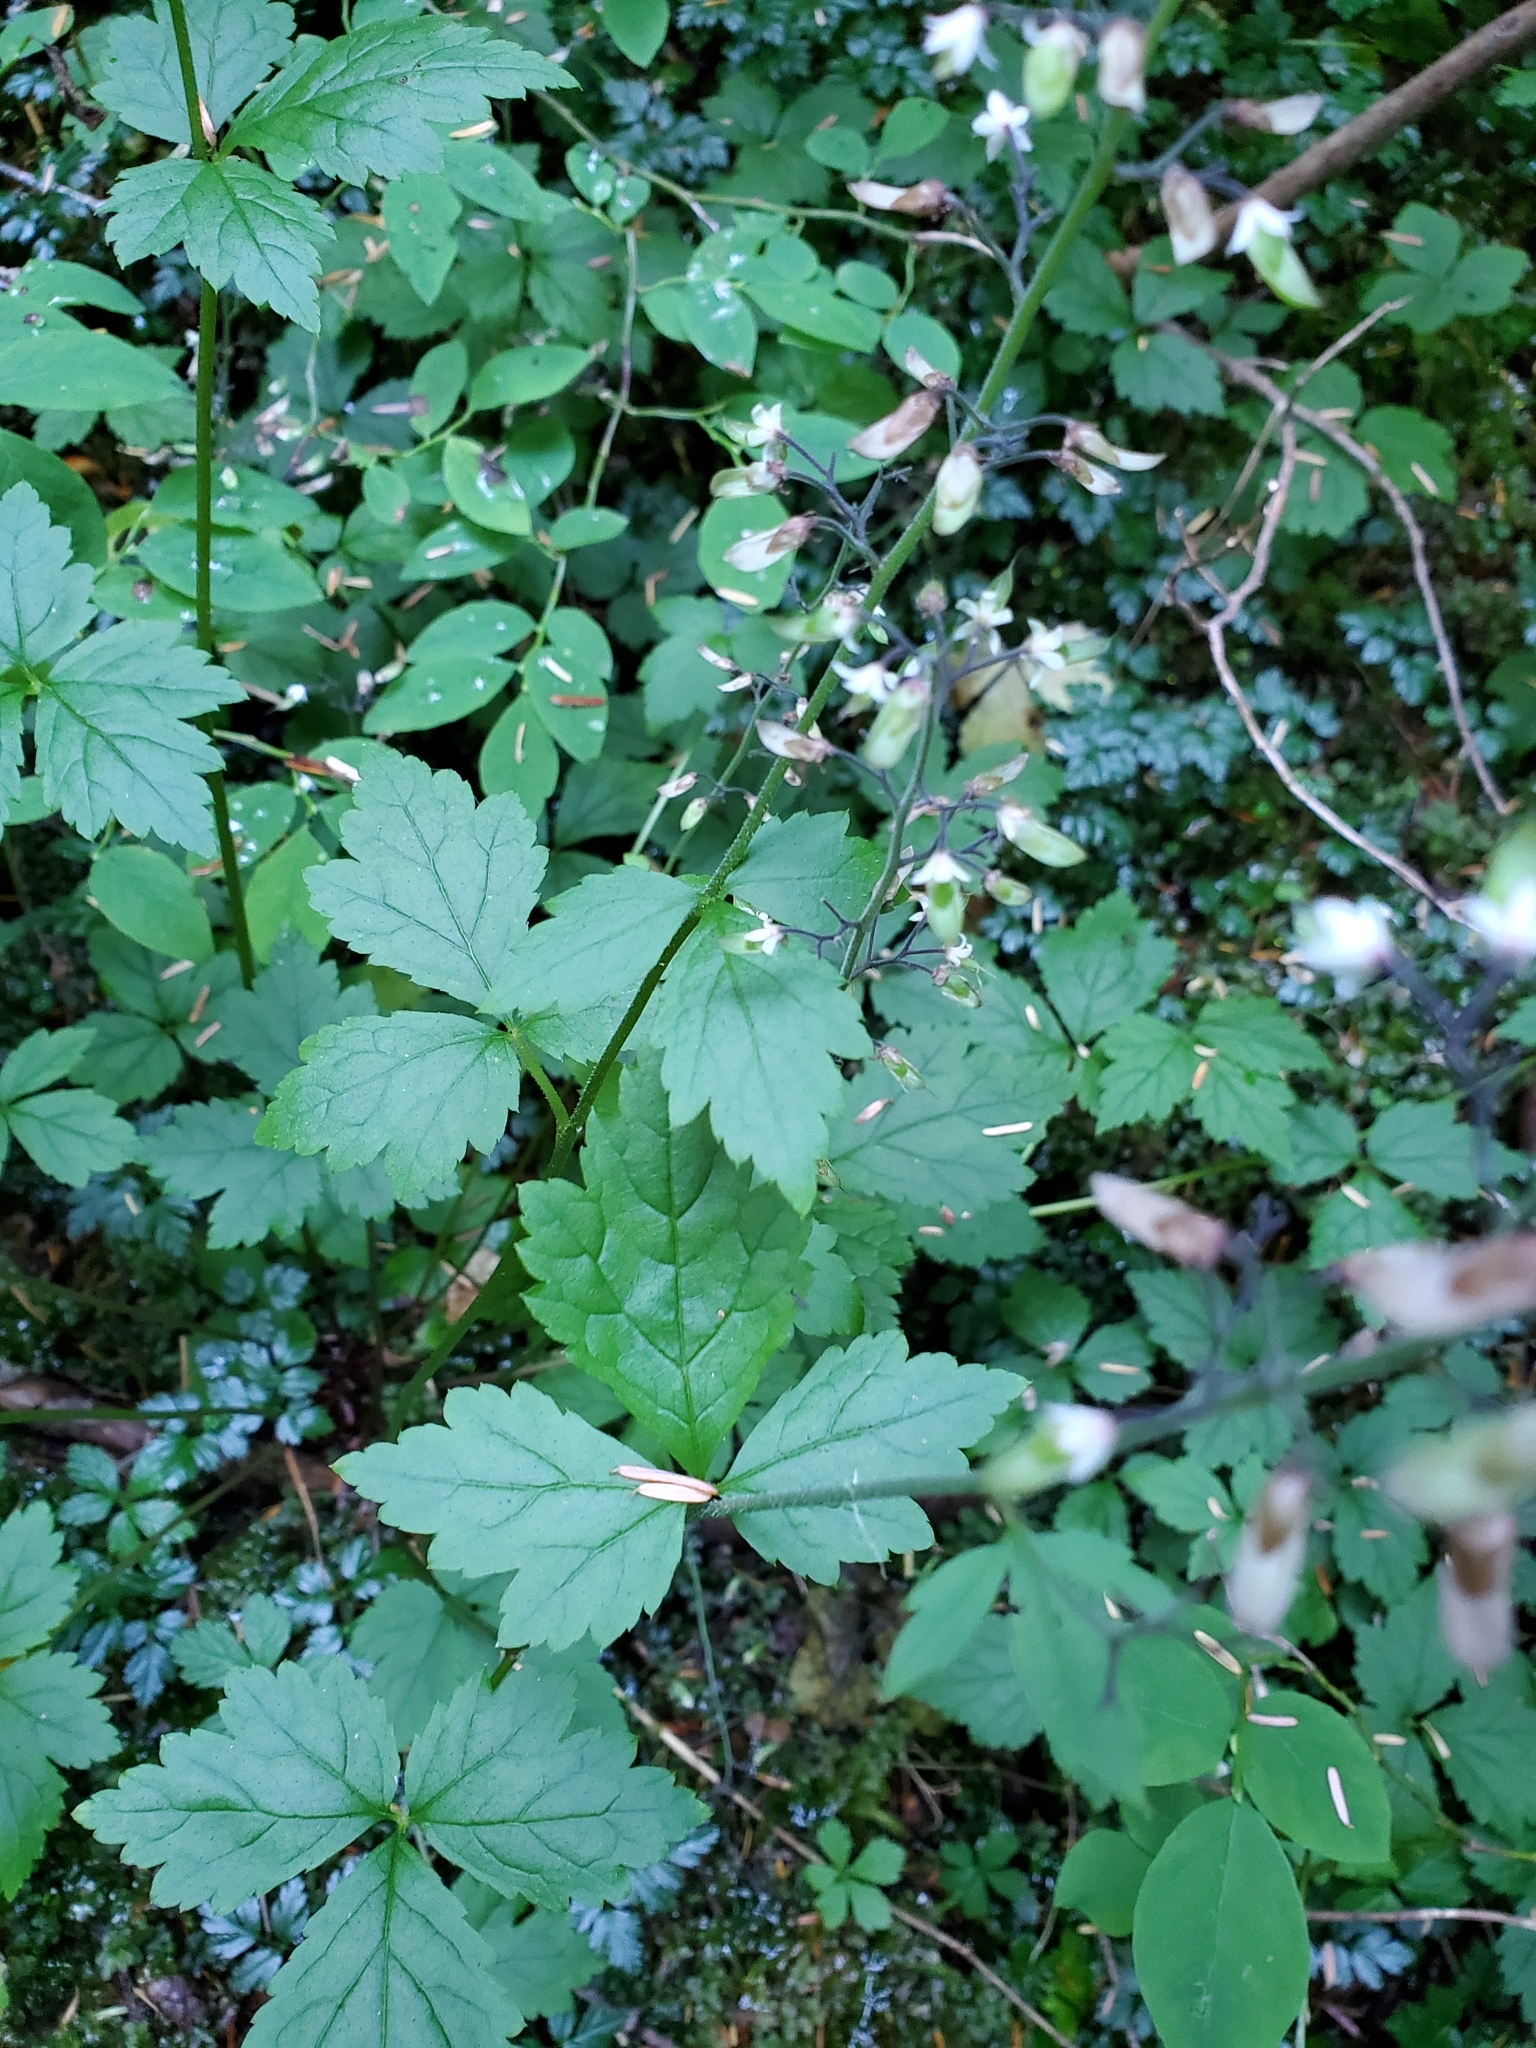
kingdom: Plantae
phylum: Tracheophyta
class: Magnoliopsida
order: Saxifragales
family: Saxifragaceae
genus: Tiarella
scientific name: Tiarella trifoliata
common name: Sugar-scoop
